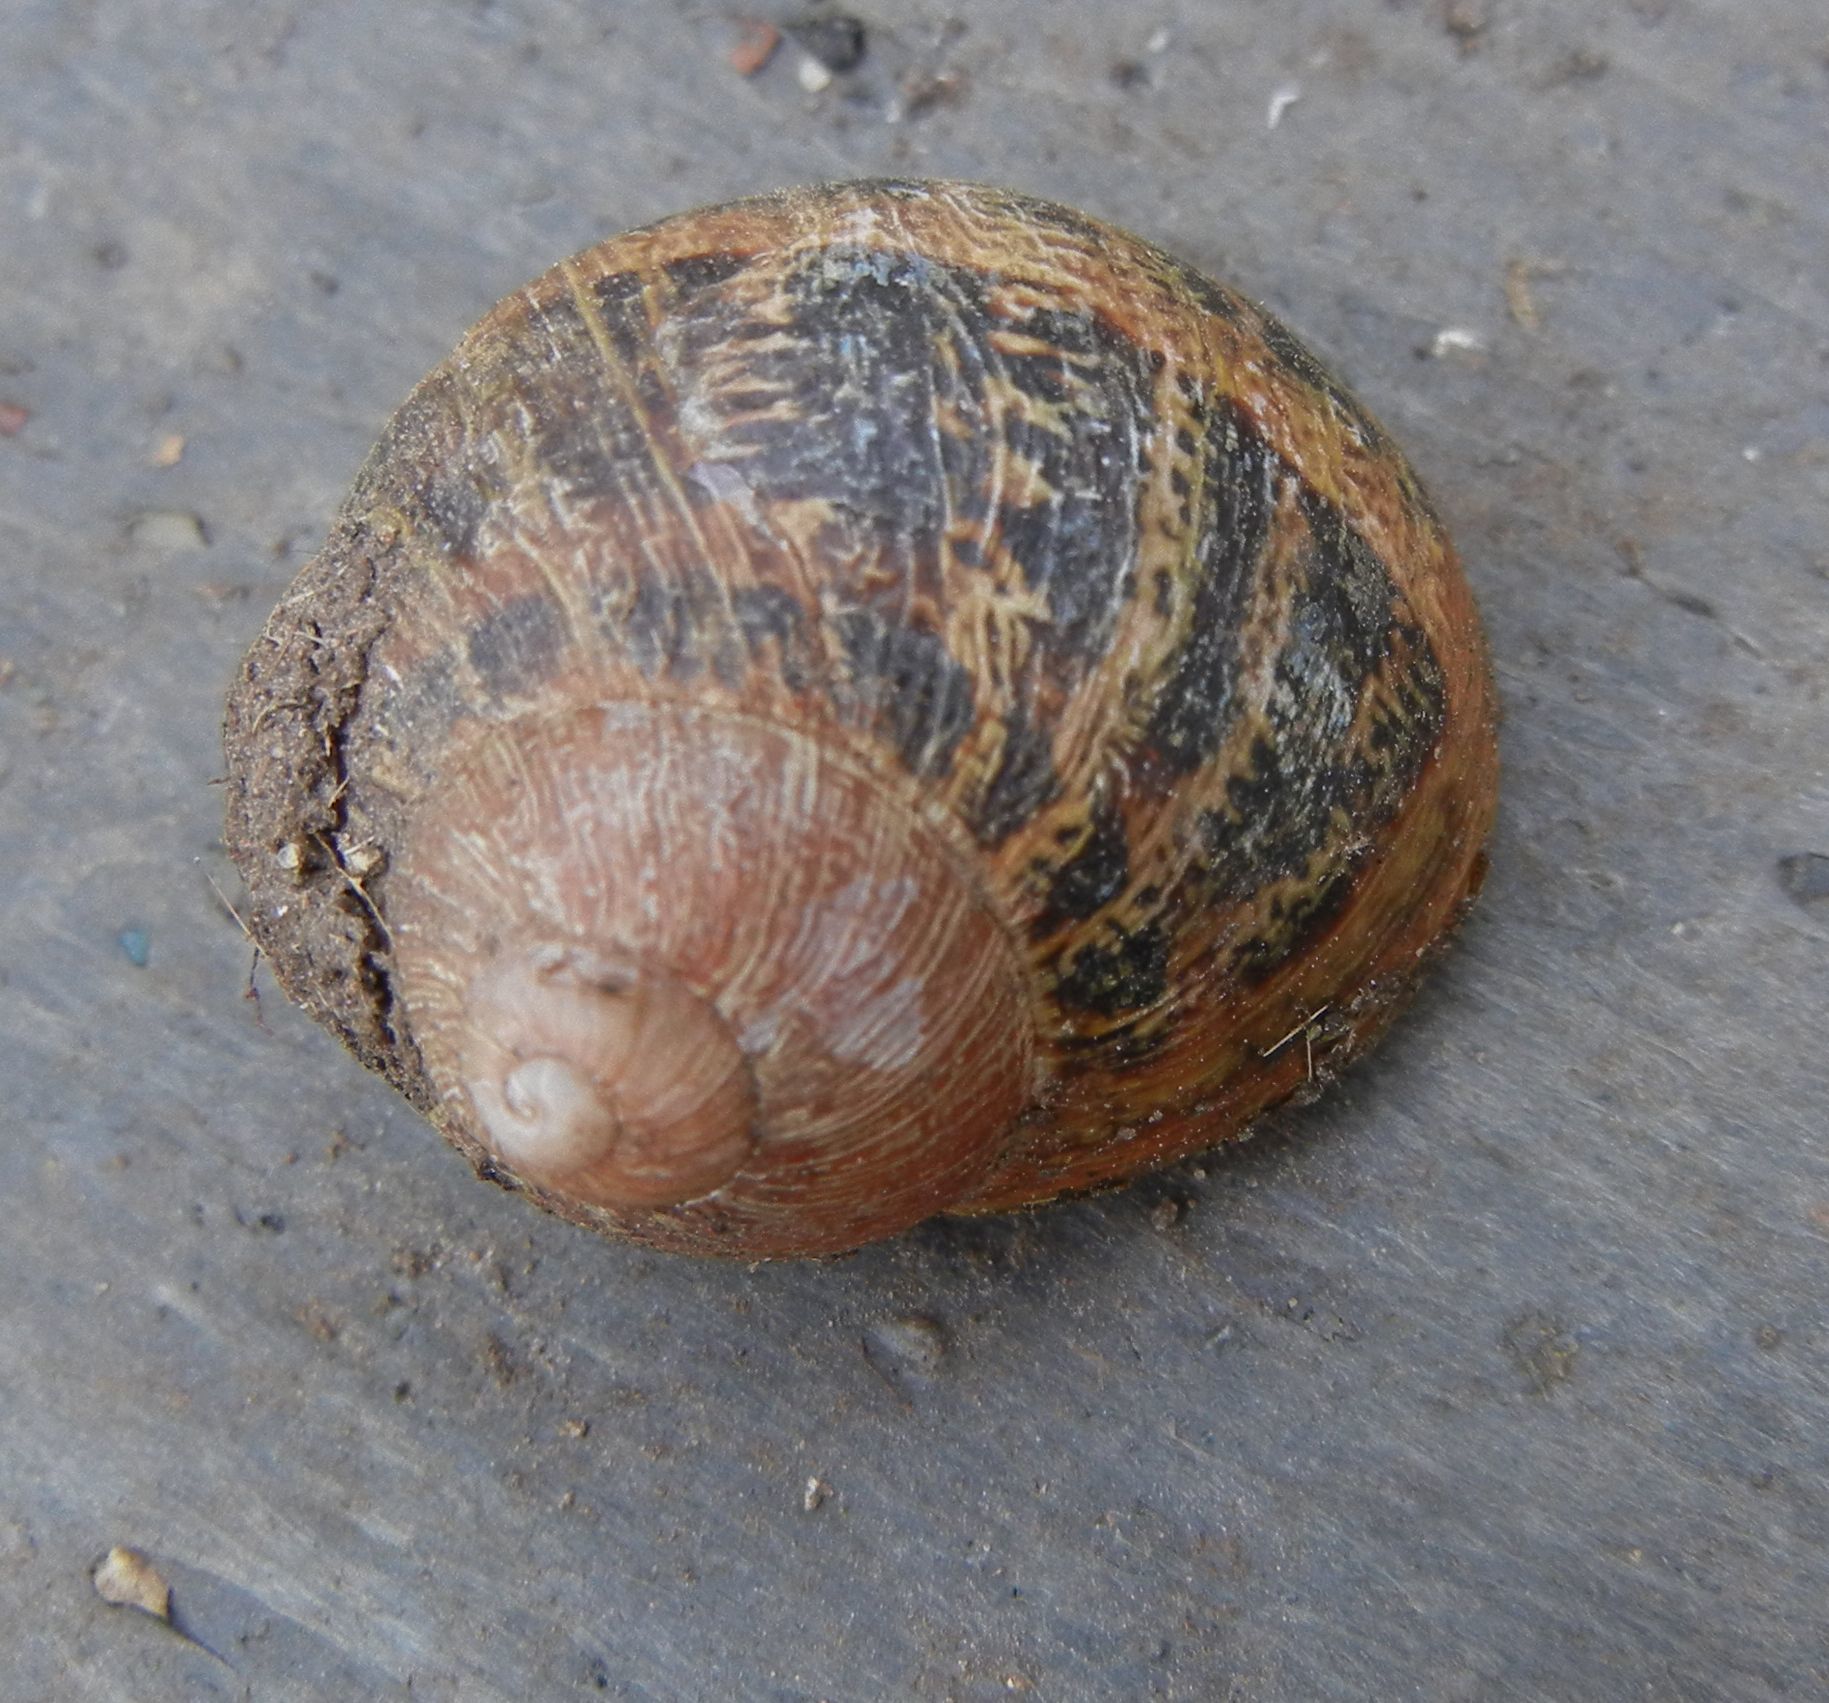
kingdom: Animalia
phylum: Mollusca
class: Gastropoda
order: Stylommatophora
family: Helicidae
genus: Cornu
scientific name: Cornu aspersum
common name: Brown garden snail
